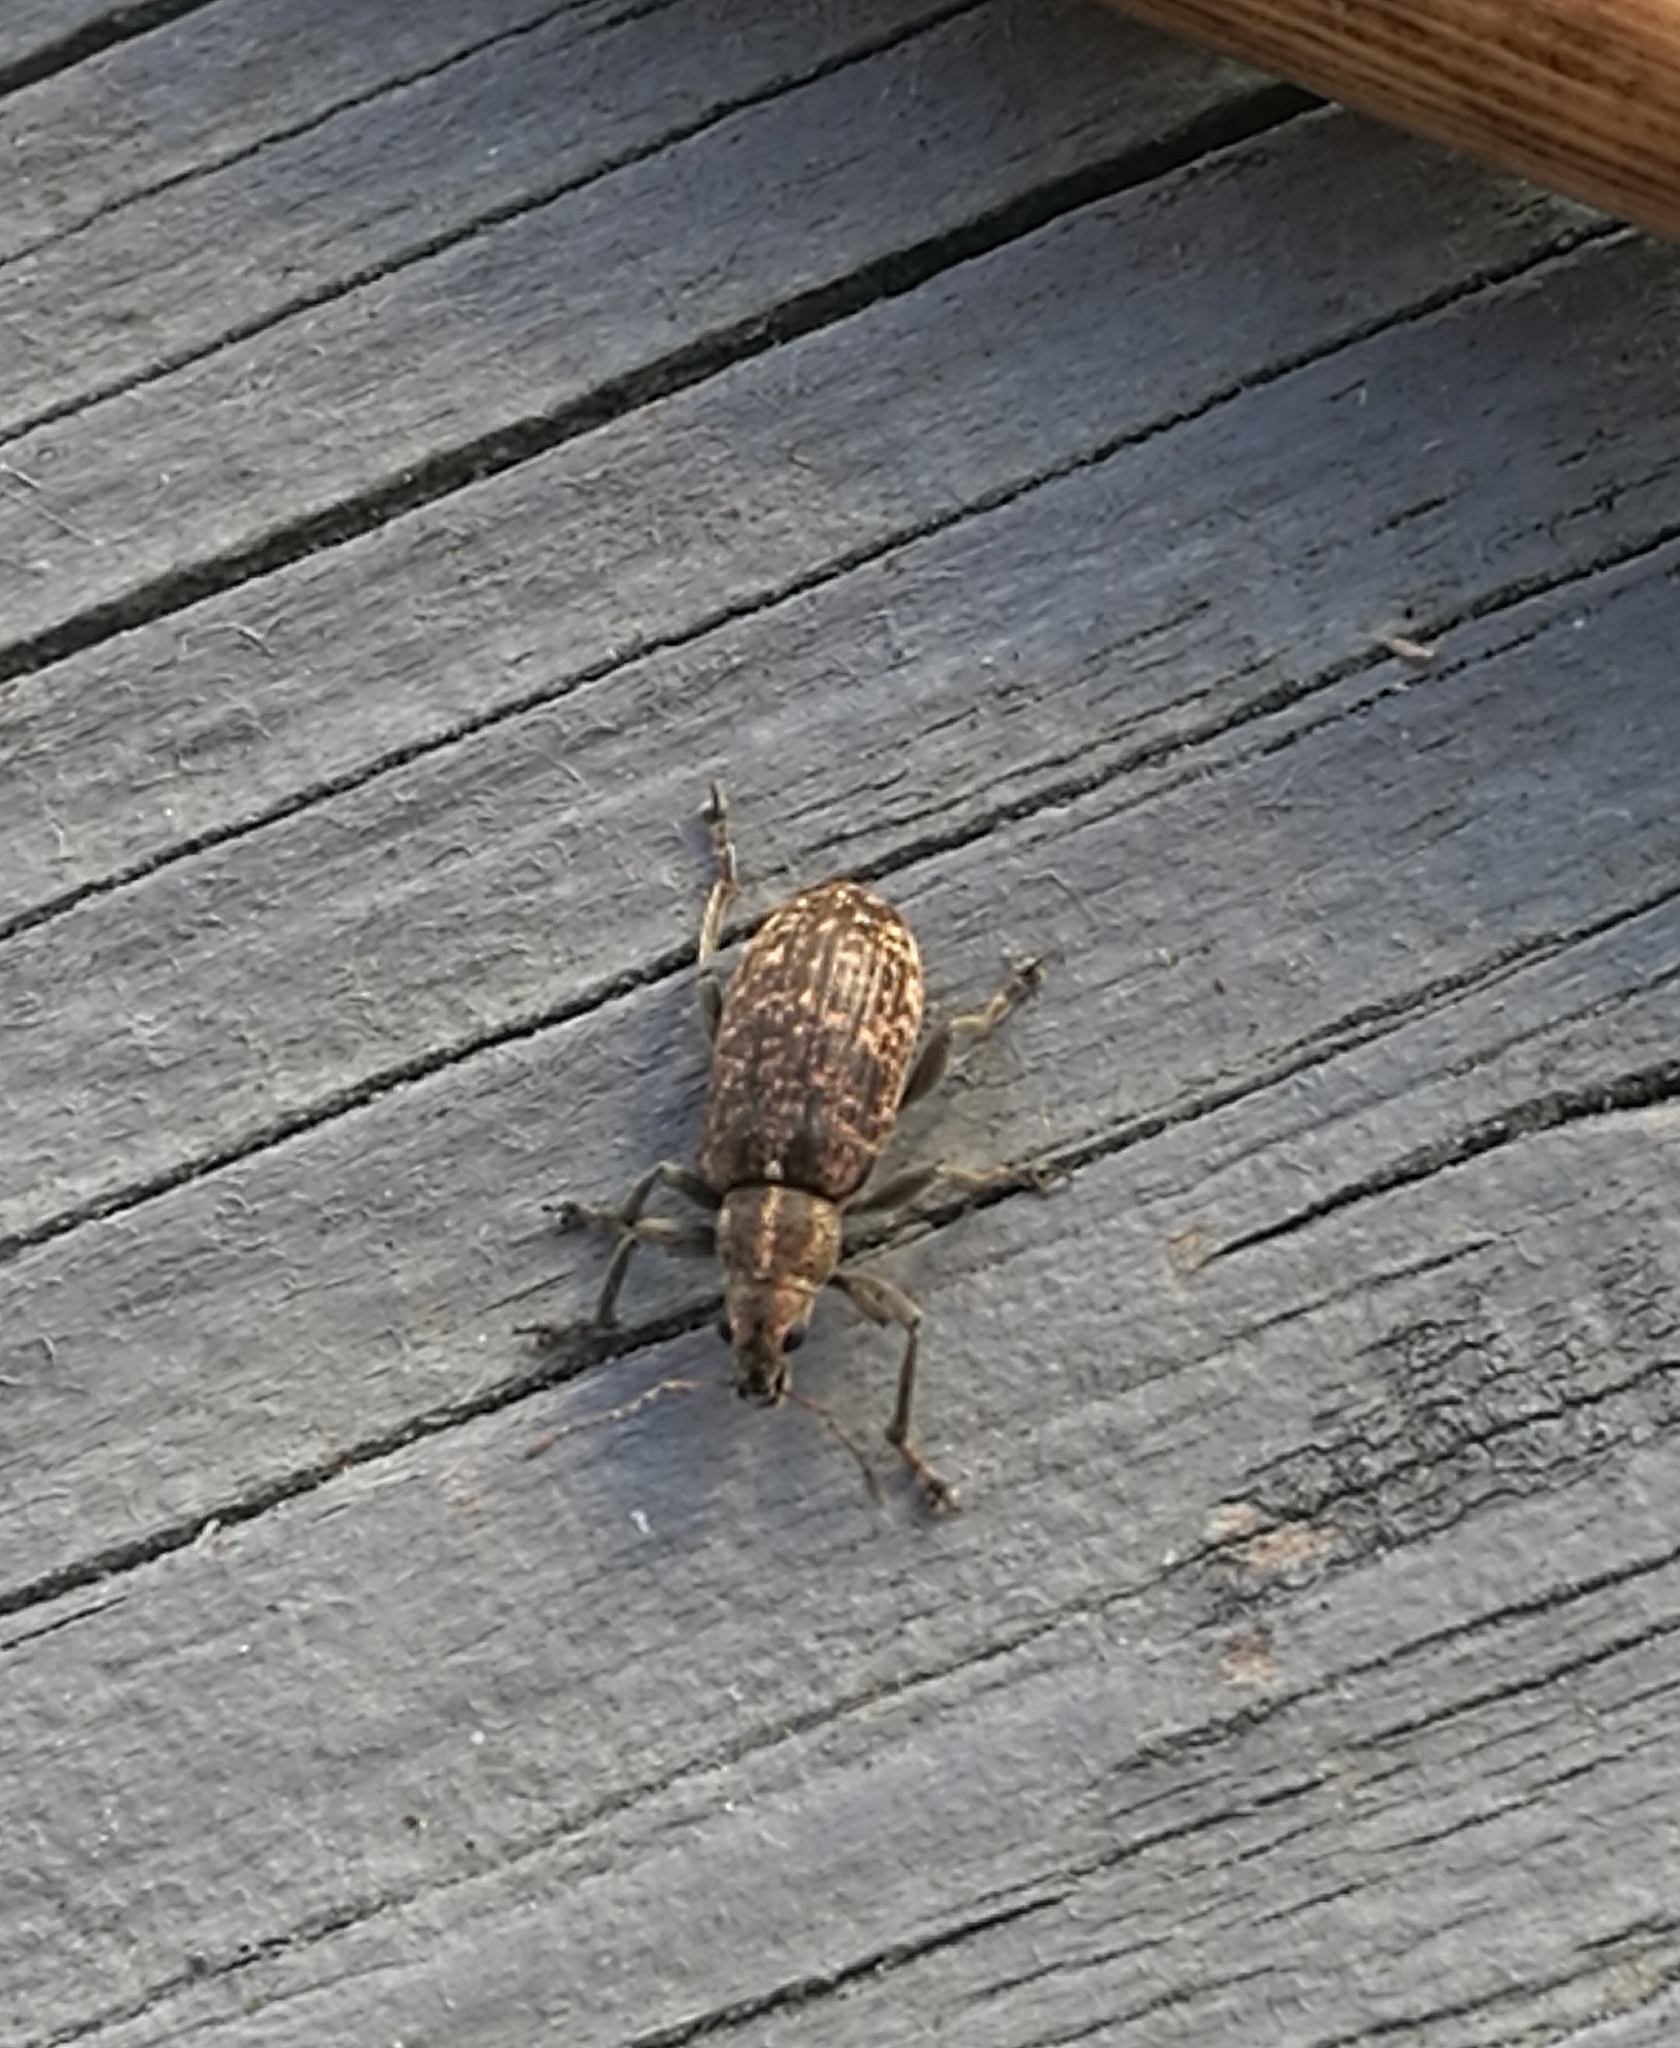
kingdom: Animalia
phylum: Arthropoda
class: Insecta
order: Coleoptera
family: Curculionidae
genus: Polydrusus
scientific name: Polydrusus pilosus
